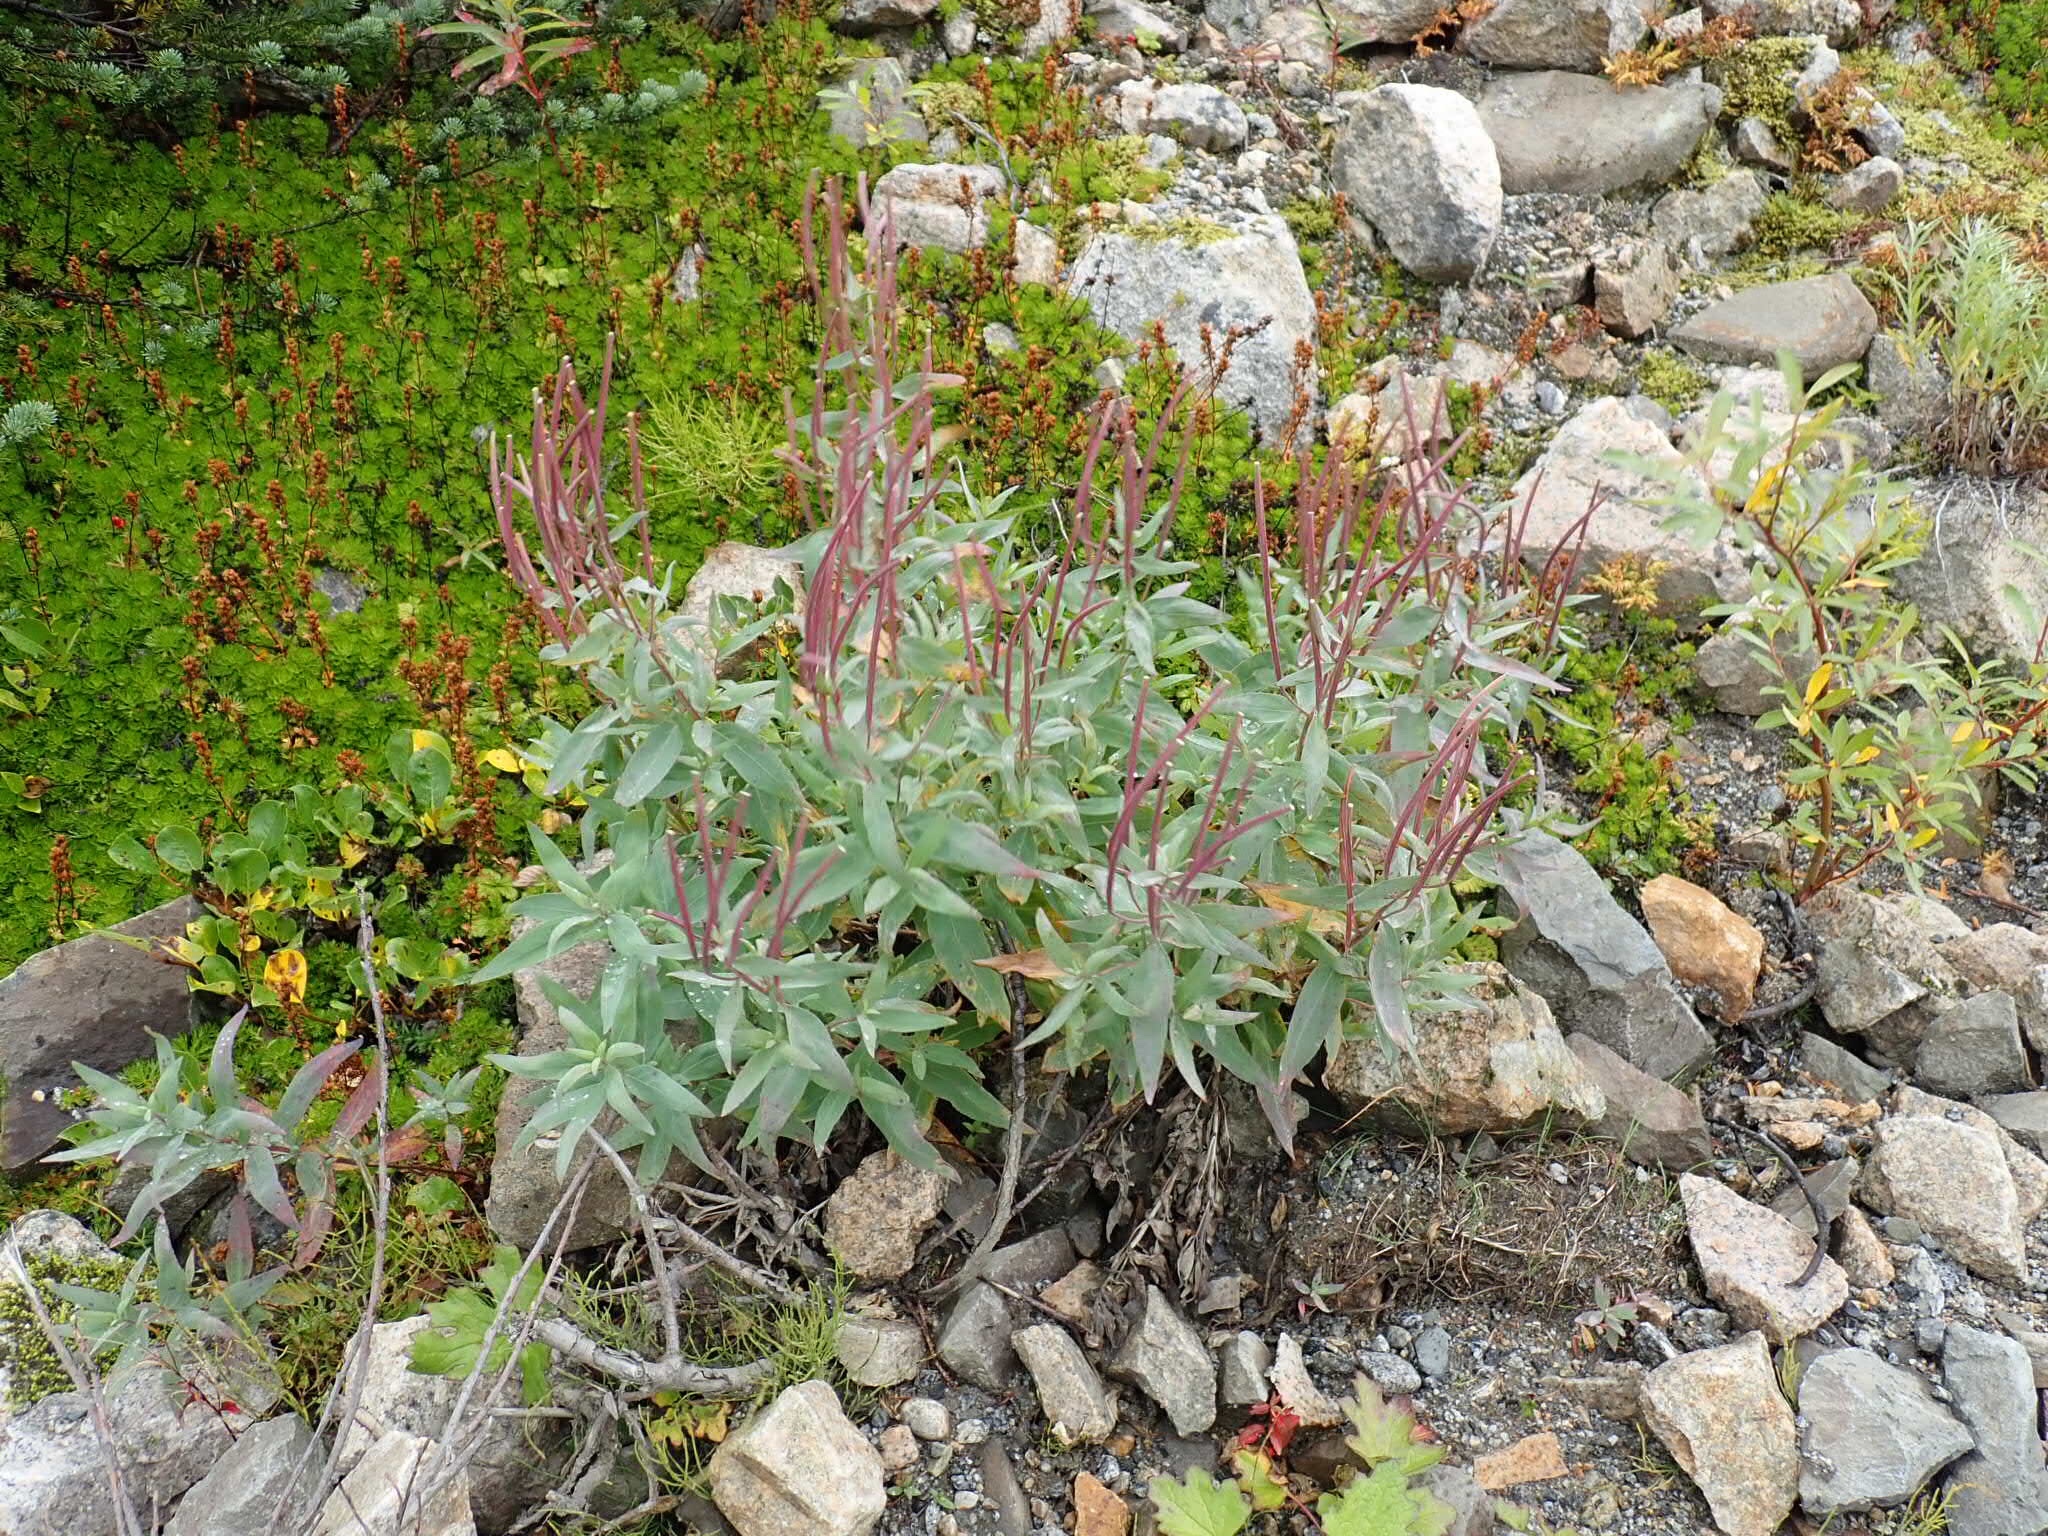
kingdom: Plantae
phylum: Tracheophyta
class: Magnoliopsida
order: Myrtales
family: Onagraceae
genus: Chamaenerion
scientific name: Chamaenerion latifolium
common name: Dwarf fireweed
